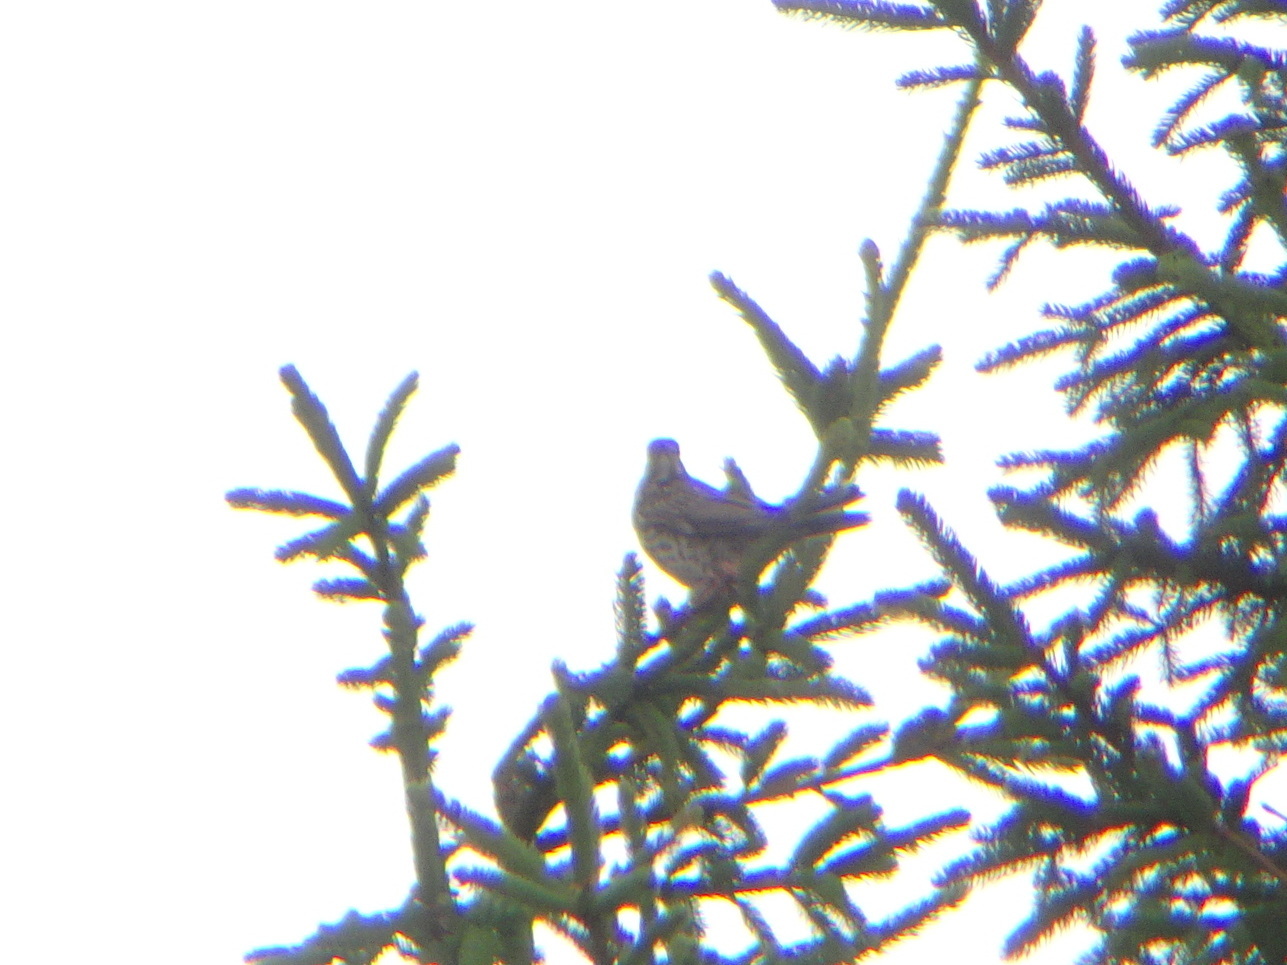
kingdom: Animalia
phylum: Chordata
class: Aves
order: Passeriformes
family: Turdidae
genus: Turdus
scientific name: Turdus viscivorus
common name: Mistle thrush
